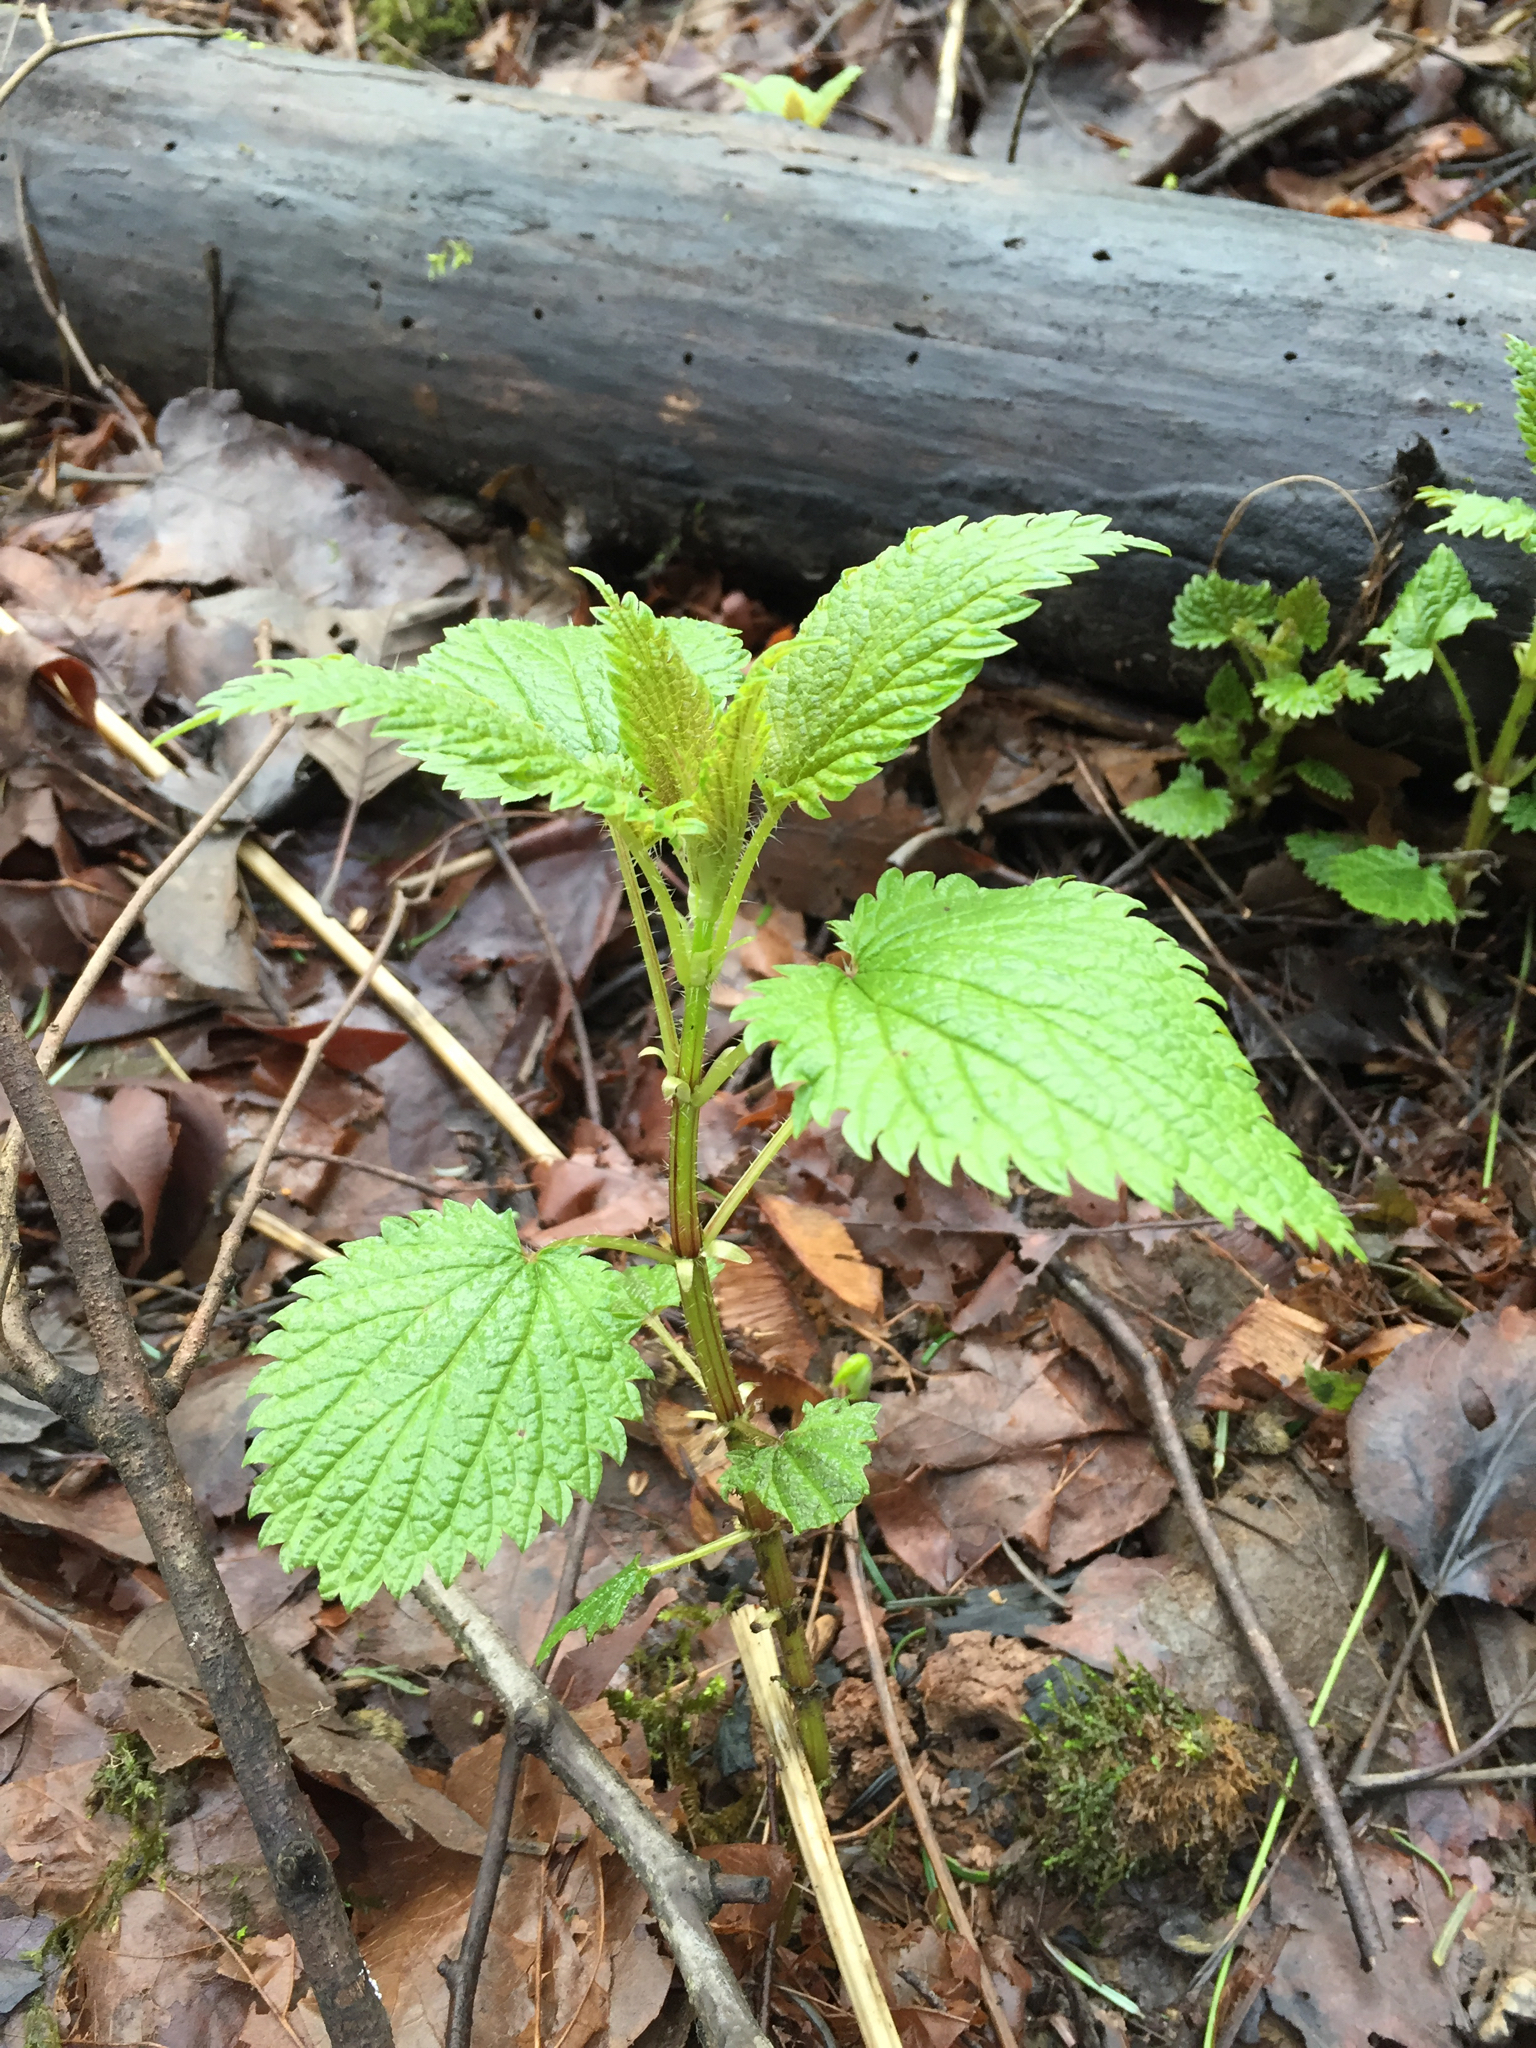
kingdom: Plantae
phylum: Tracheophyta
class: Magnoliopsida
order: Rosales
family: Urticaceae
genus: Urtica
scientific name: Urtica dioica
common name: Common nettle
